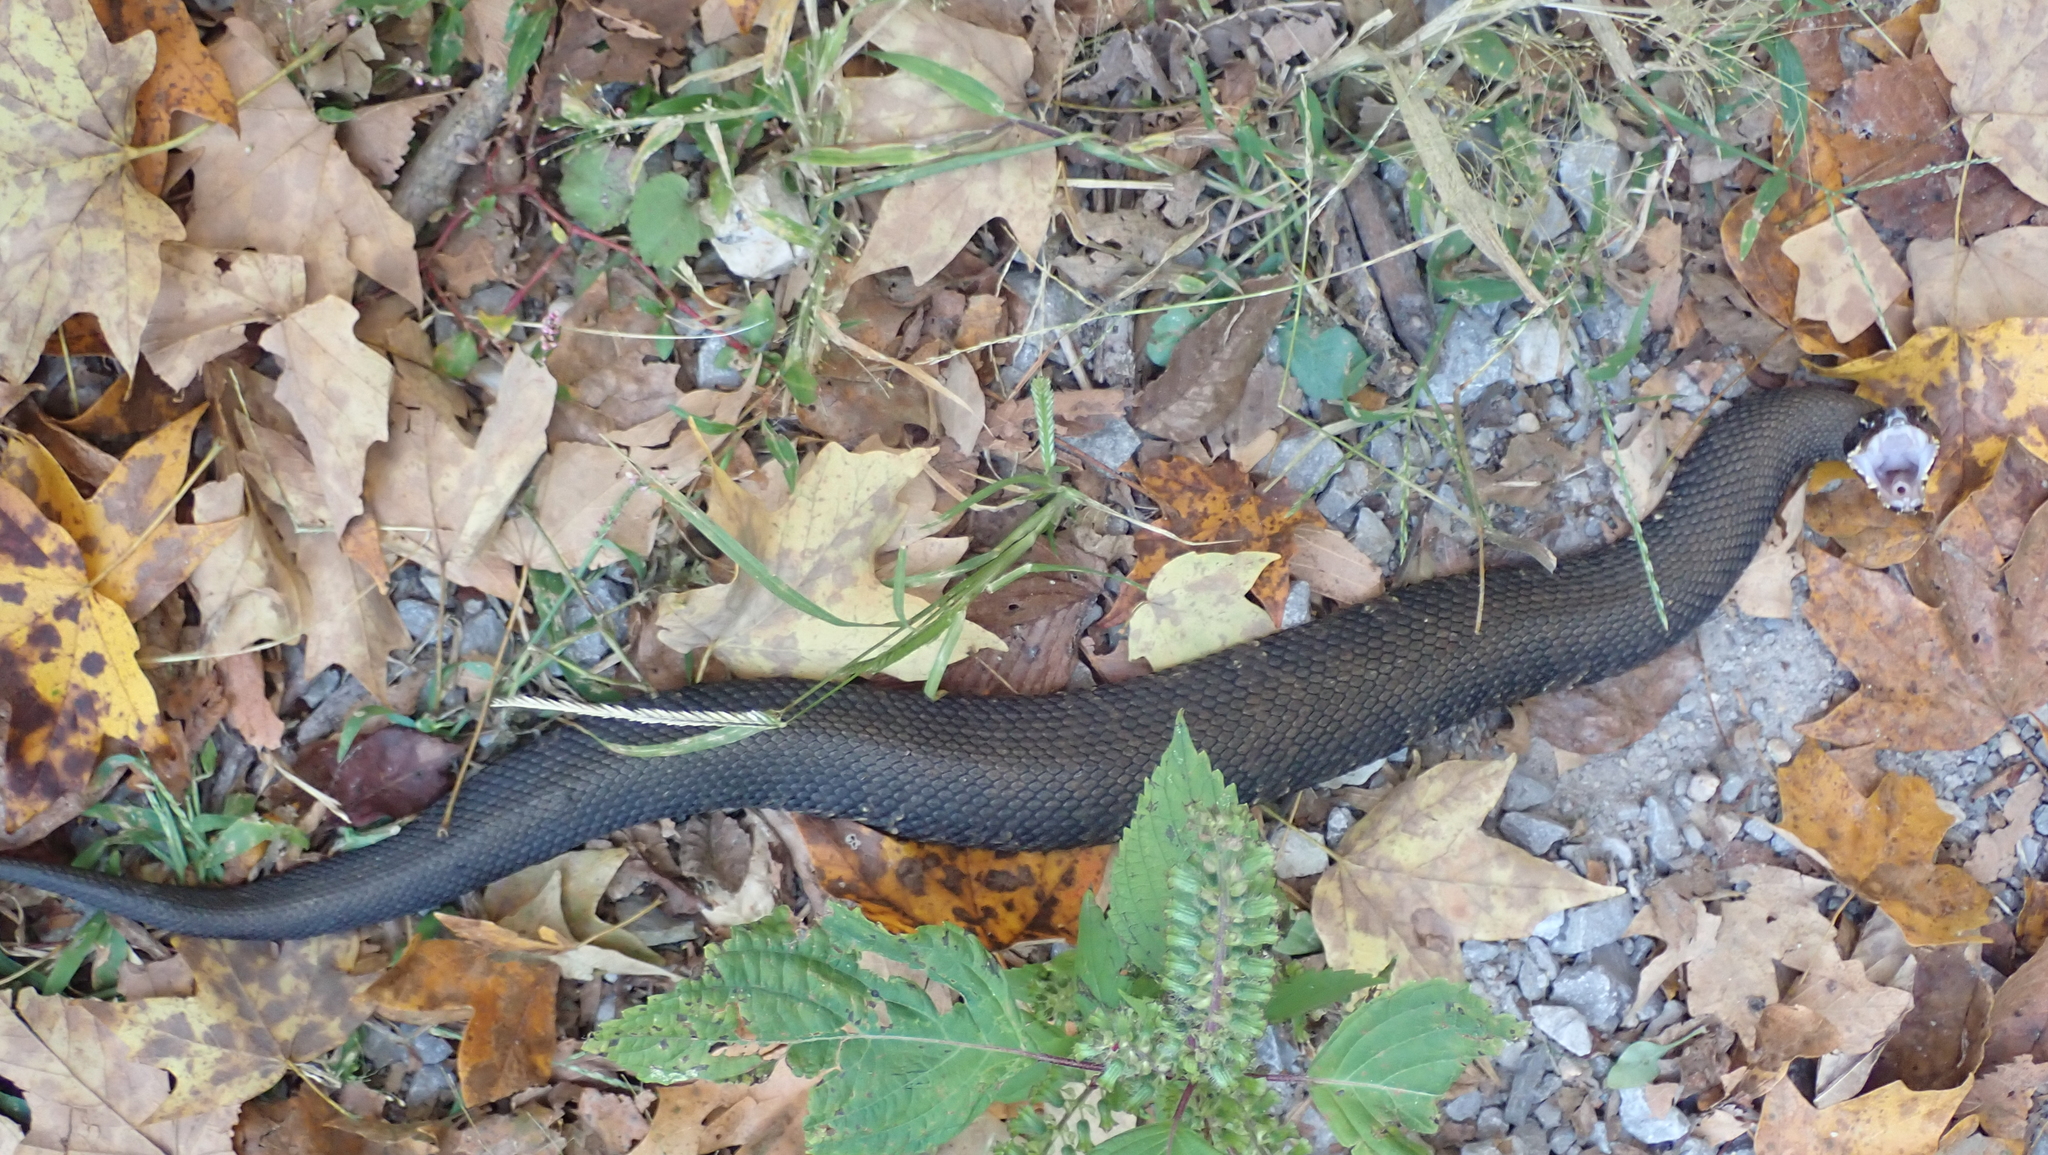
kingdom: Animalia
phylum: Chordata
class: Squamata
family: Viperidae
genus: Agkistrodon
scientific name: Agkistrodon piscivorus
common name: Cottonmouth
